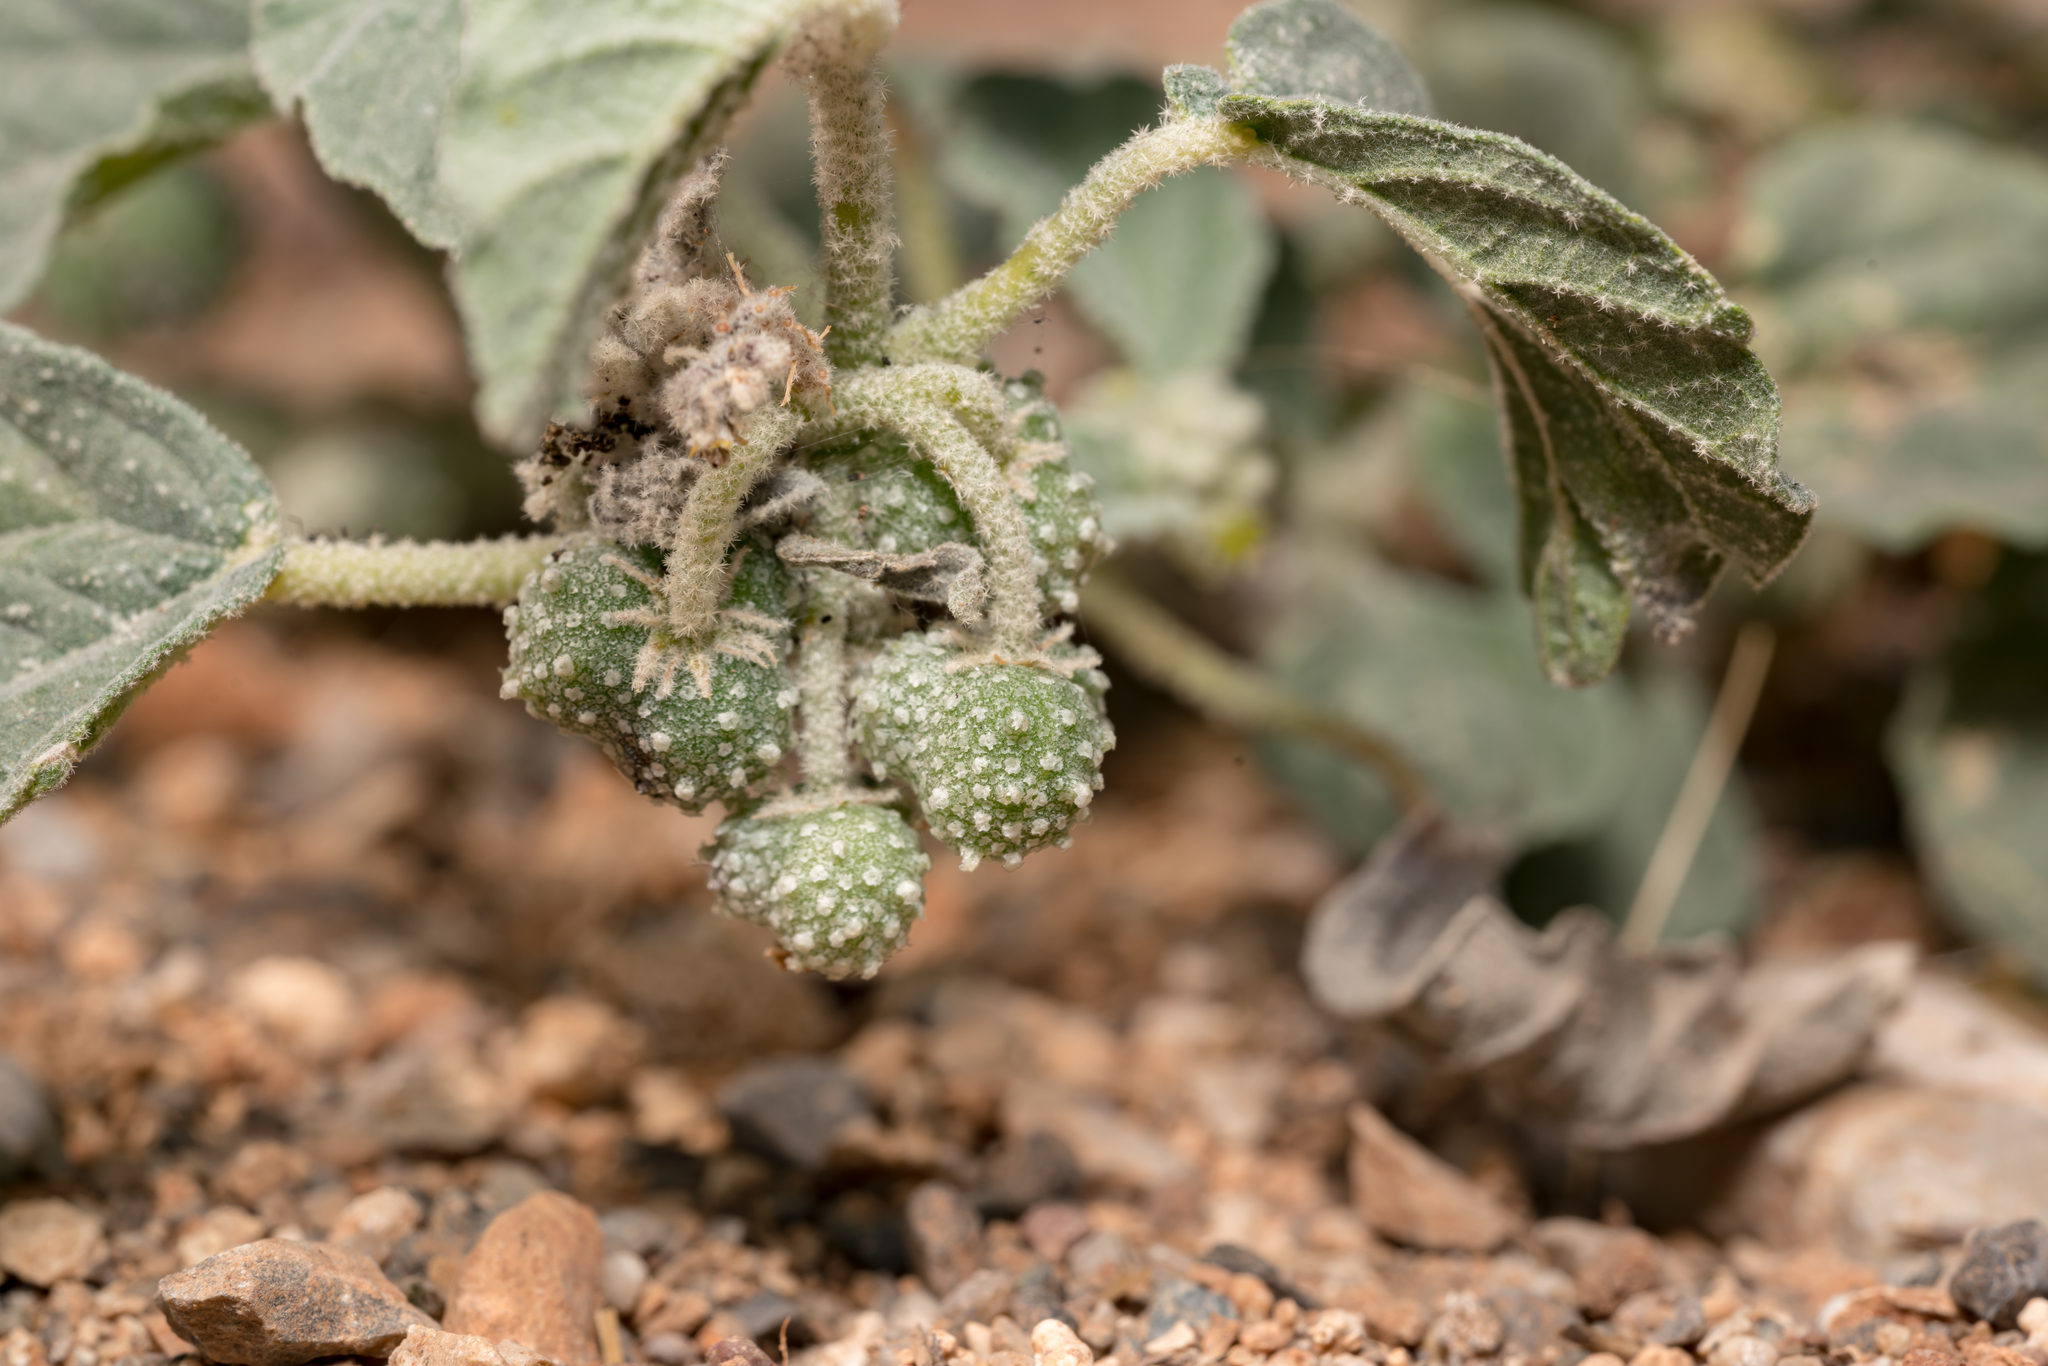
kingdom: Plantae
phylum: Tracheophyta
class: Magnoliopsida
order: Malpighiales
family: Euphorbiaceae
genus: Chrozophora
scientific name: Chrozophora tinctoria
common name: Dyer's litmus
